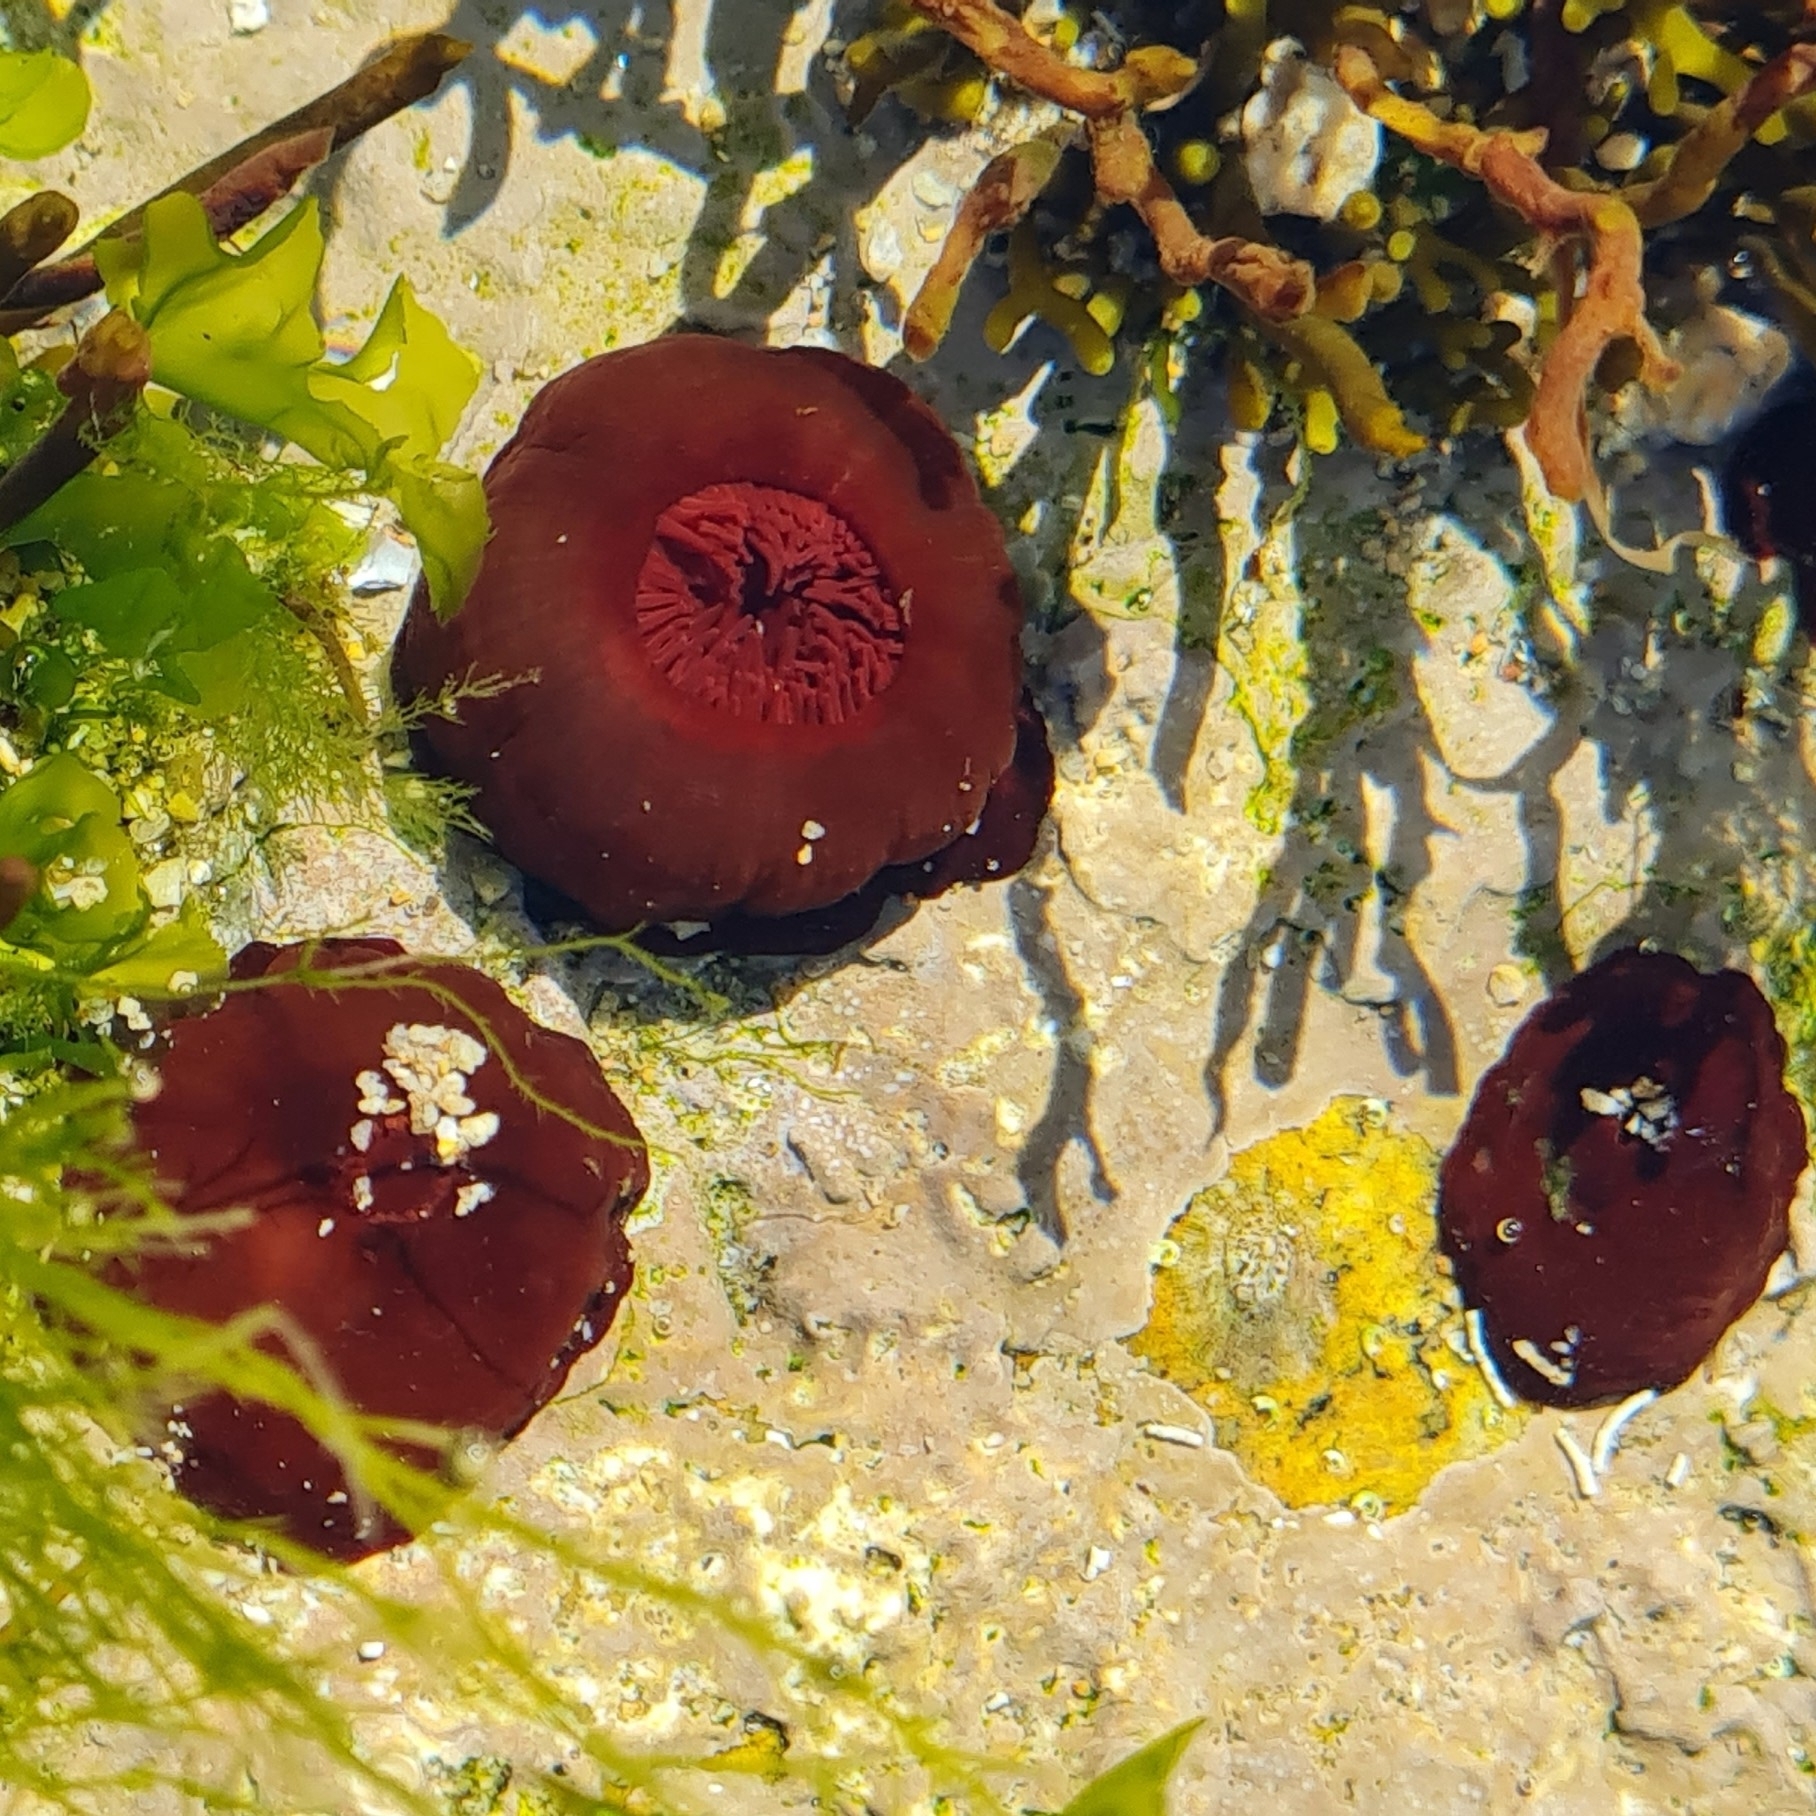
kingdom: Animalia
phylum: Cnidaria
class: Anthozoa
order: Actiniaria
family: Actiniidae
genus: Actinia
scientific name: Actinia equina
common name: Beadlet anemone
